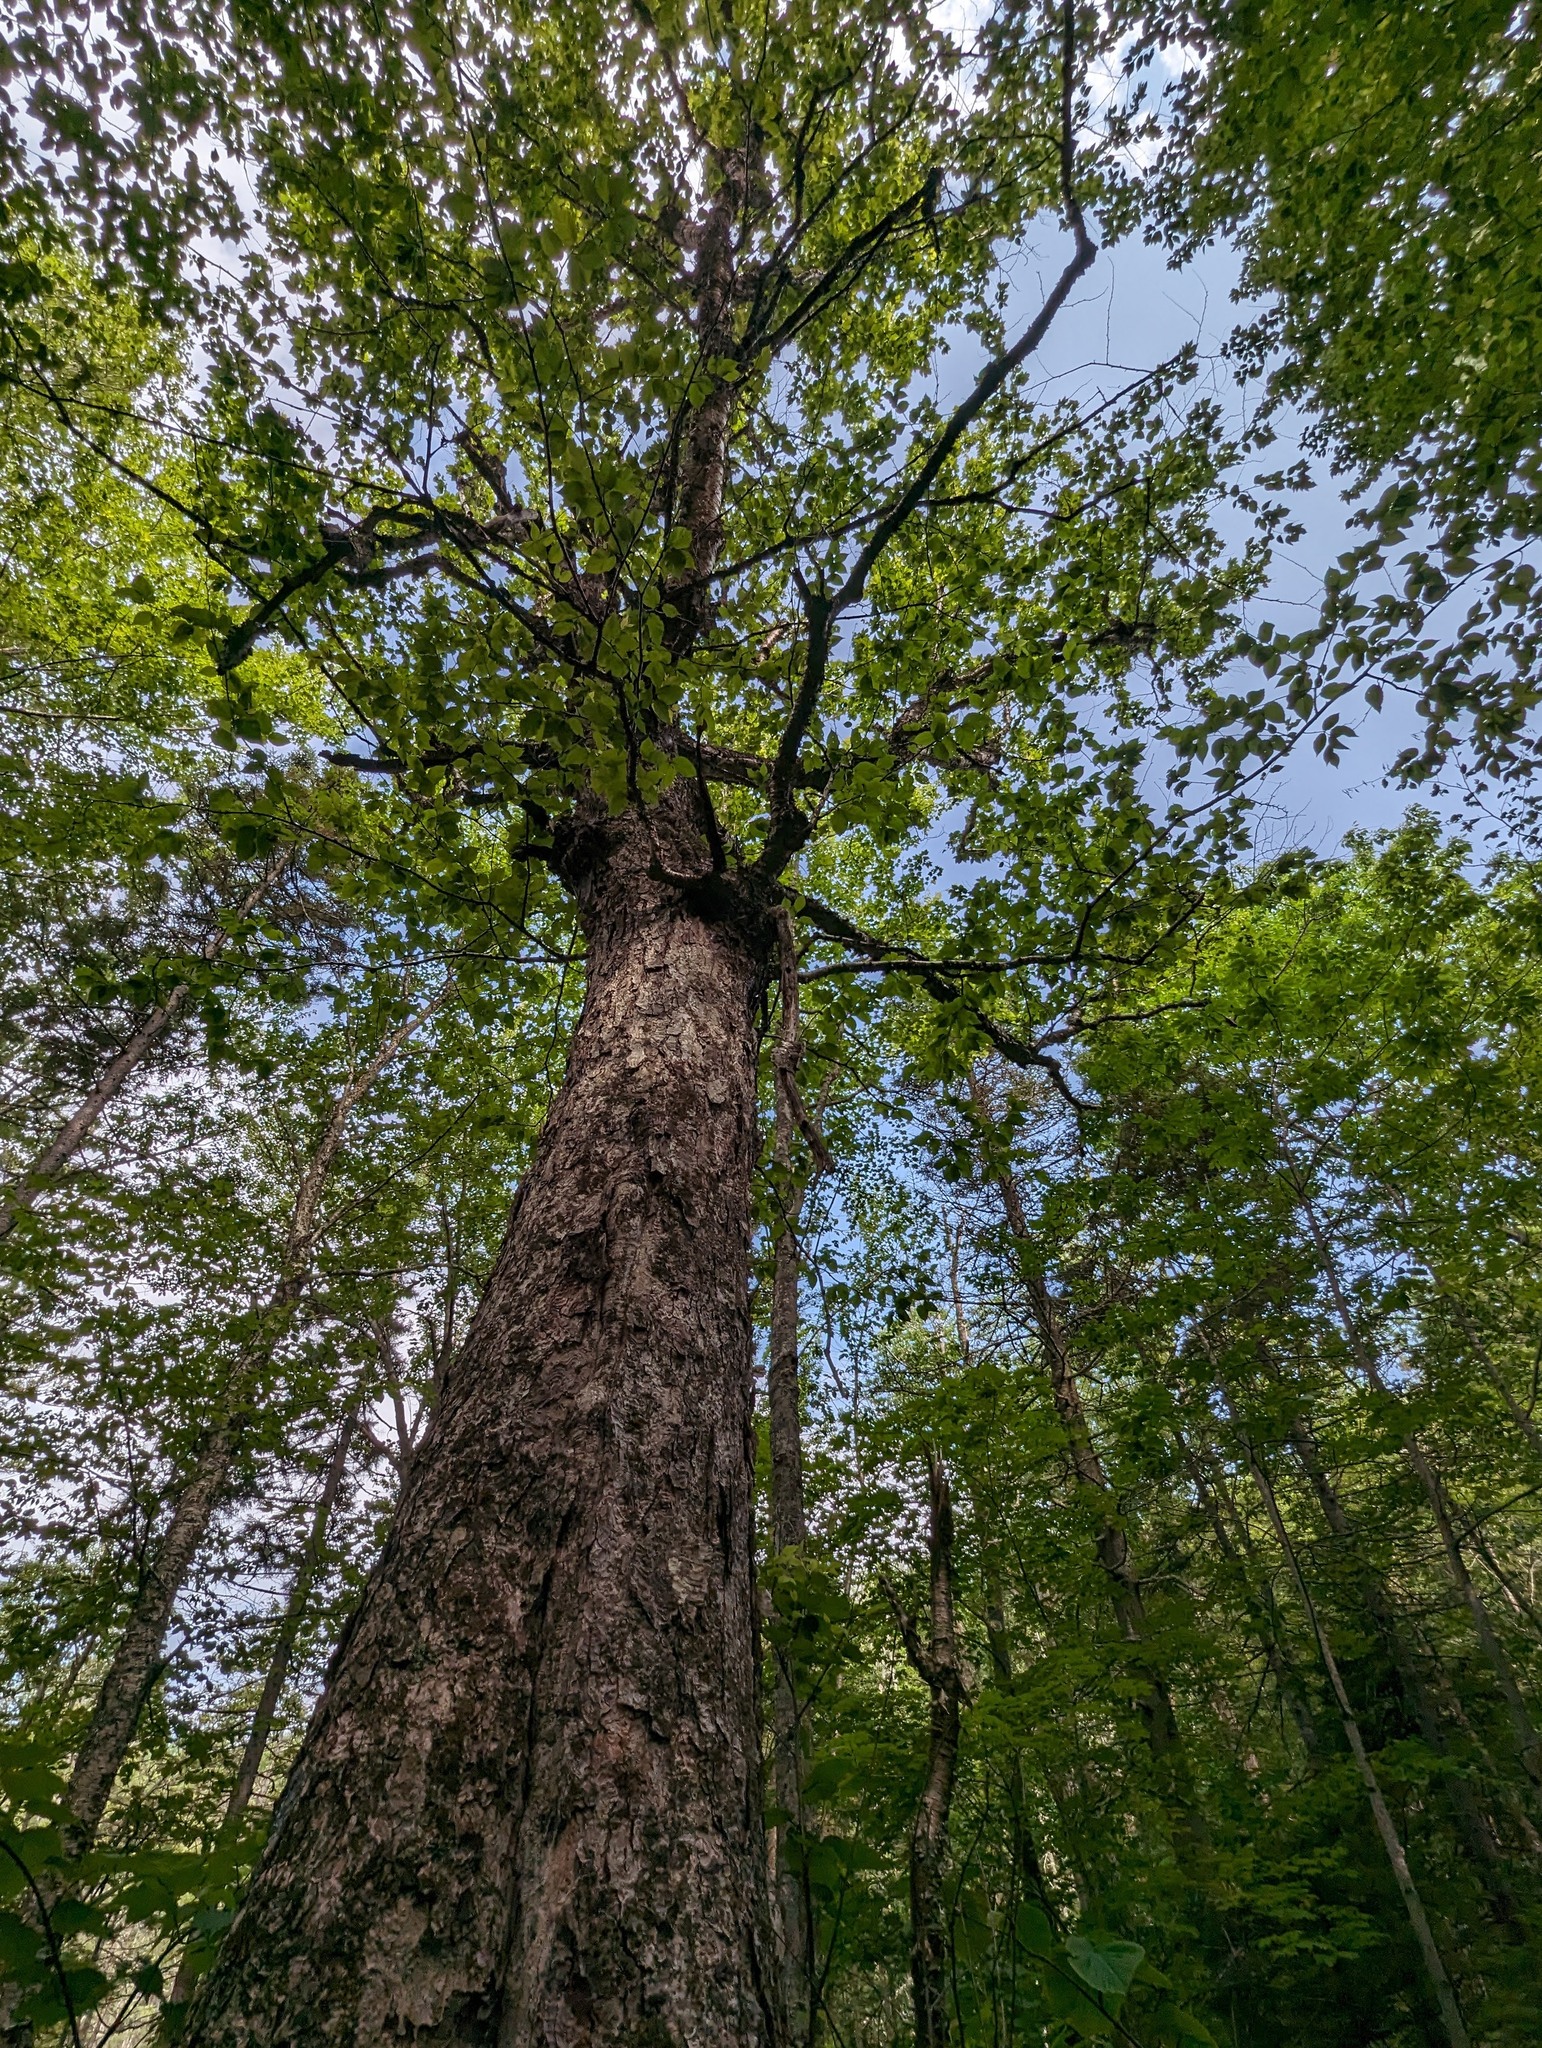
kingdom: Plantae
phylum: Tracheophyta
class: Magnoliopsida
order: Fagales
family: Betulaceae
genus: Betula
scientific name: Betula alleghaniensis
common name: Yellow birch
